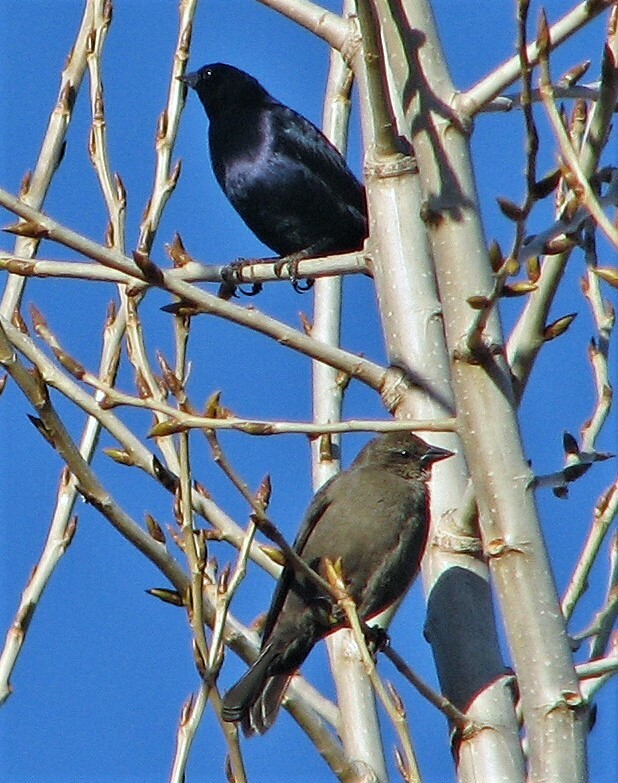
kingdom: Animalia
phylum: Chordata
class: Aves
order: Passeriformes
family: Icteridae
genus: Molothrus
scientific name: Molothrus bonariensis
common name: Shiny cowbird
